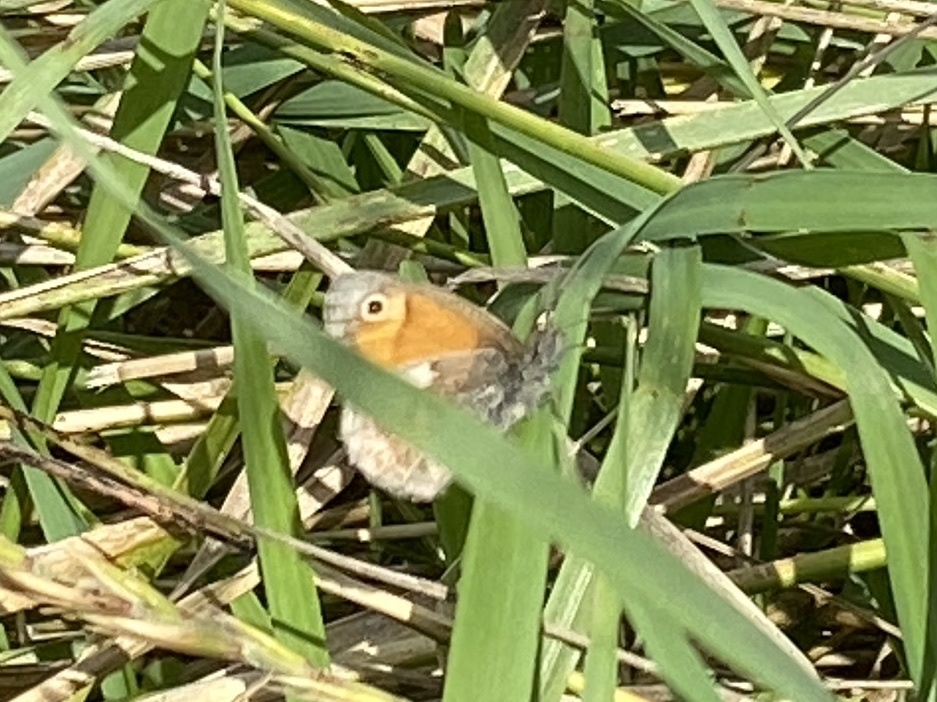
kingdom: Animalia
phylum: Arthropoda
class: Insecta
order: Lepidoptera
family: Nymphalidae
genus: Coenonympha
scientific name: Coenonympha pamphilus
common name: Small heath
